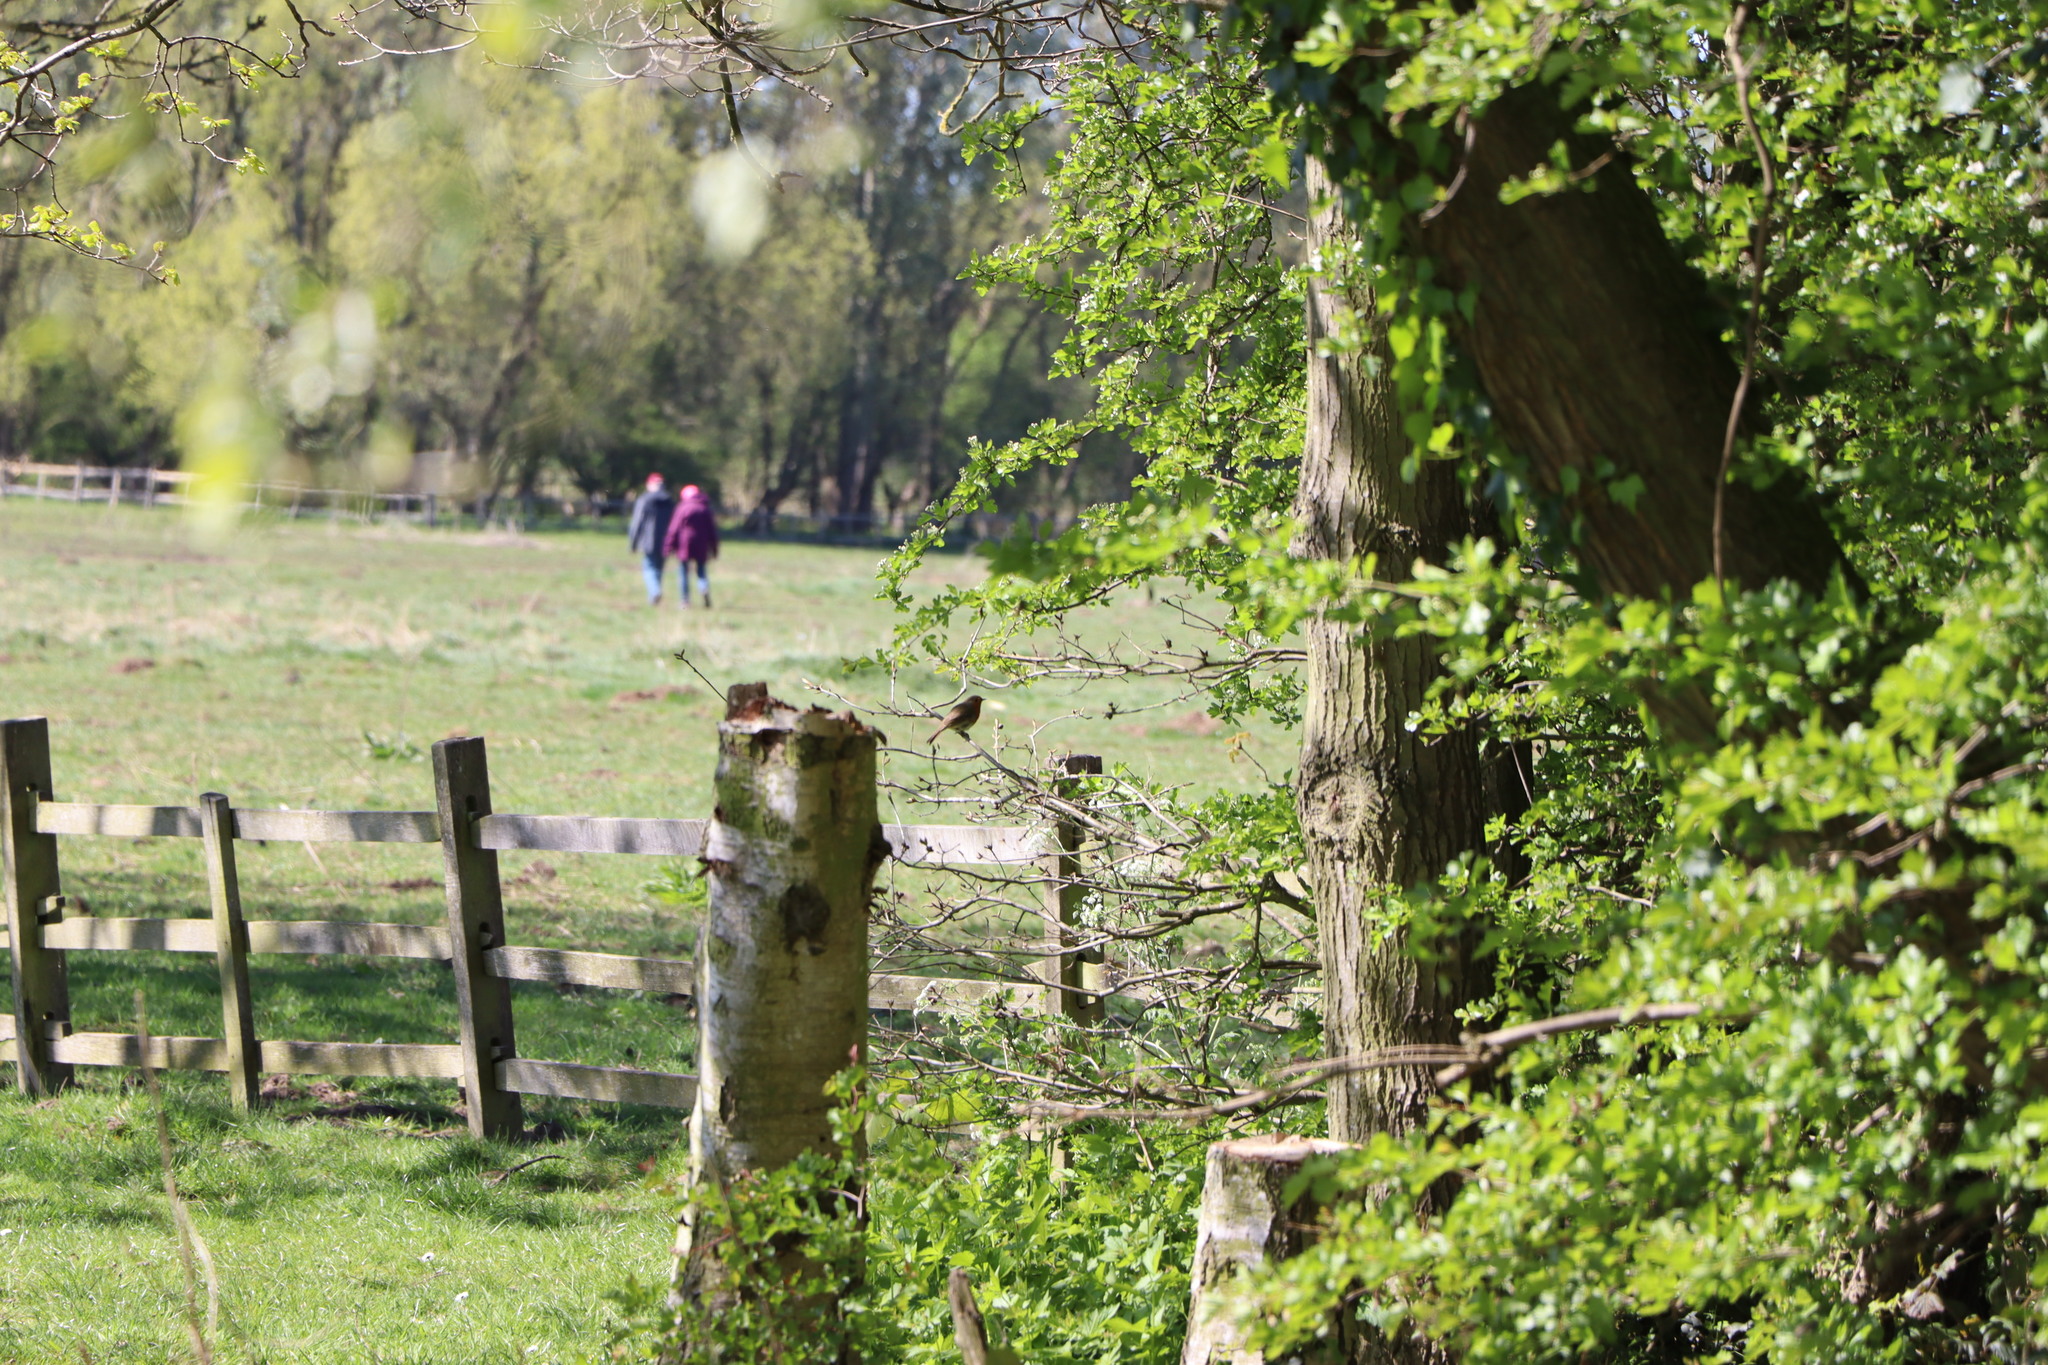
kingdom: Animalia
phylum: Chordata
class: Aves
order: Passeriformes
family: Muscicapidae
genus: Erithacus
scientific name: Erithacus rubecula
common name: European robin
